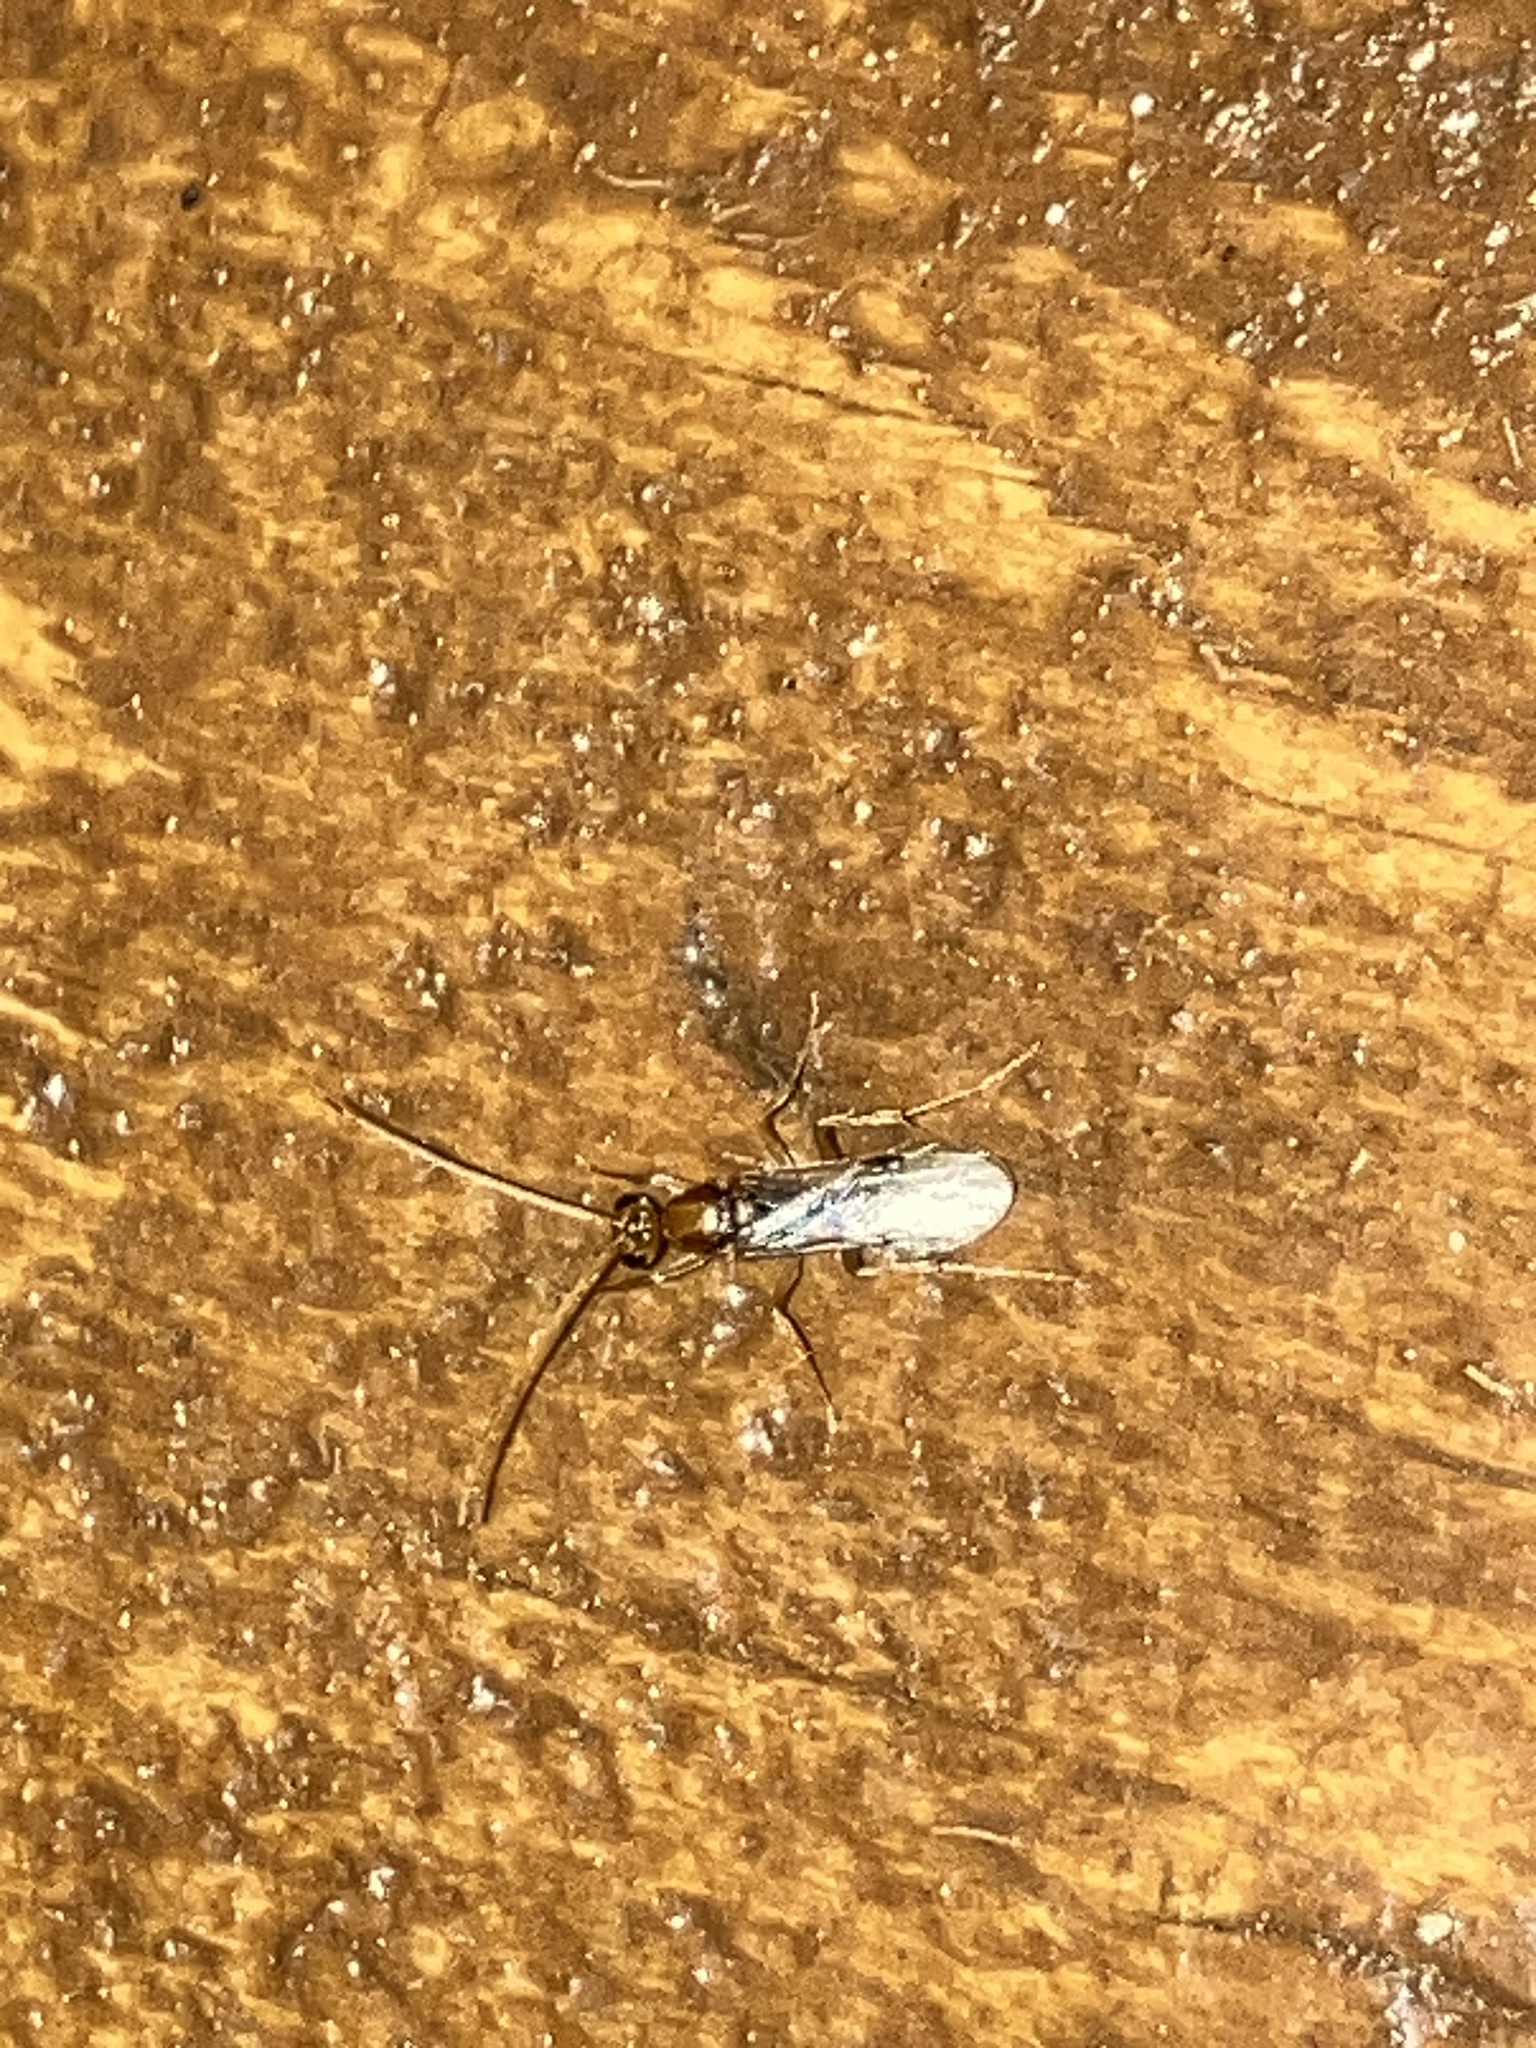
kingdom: Animalia
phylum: Arthropoda
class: Insecta
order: Hymenoptera
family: Formicidae
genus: Odontomachus
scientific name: Odontomachus ruginodis
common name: Trapjaw ant
